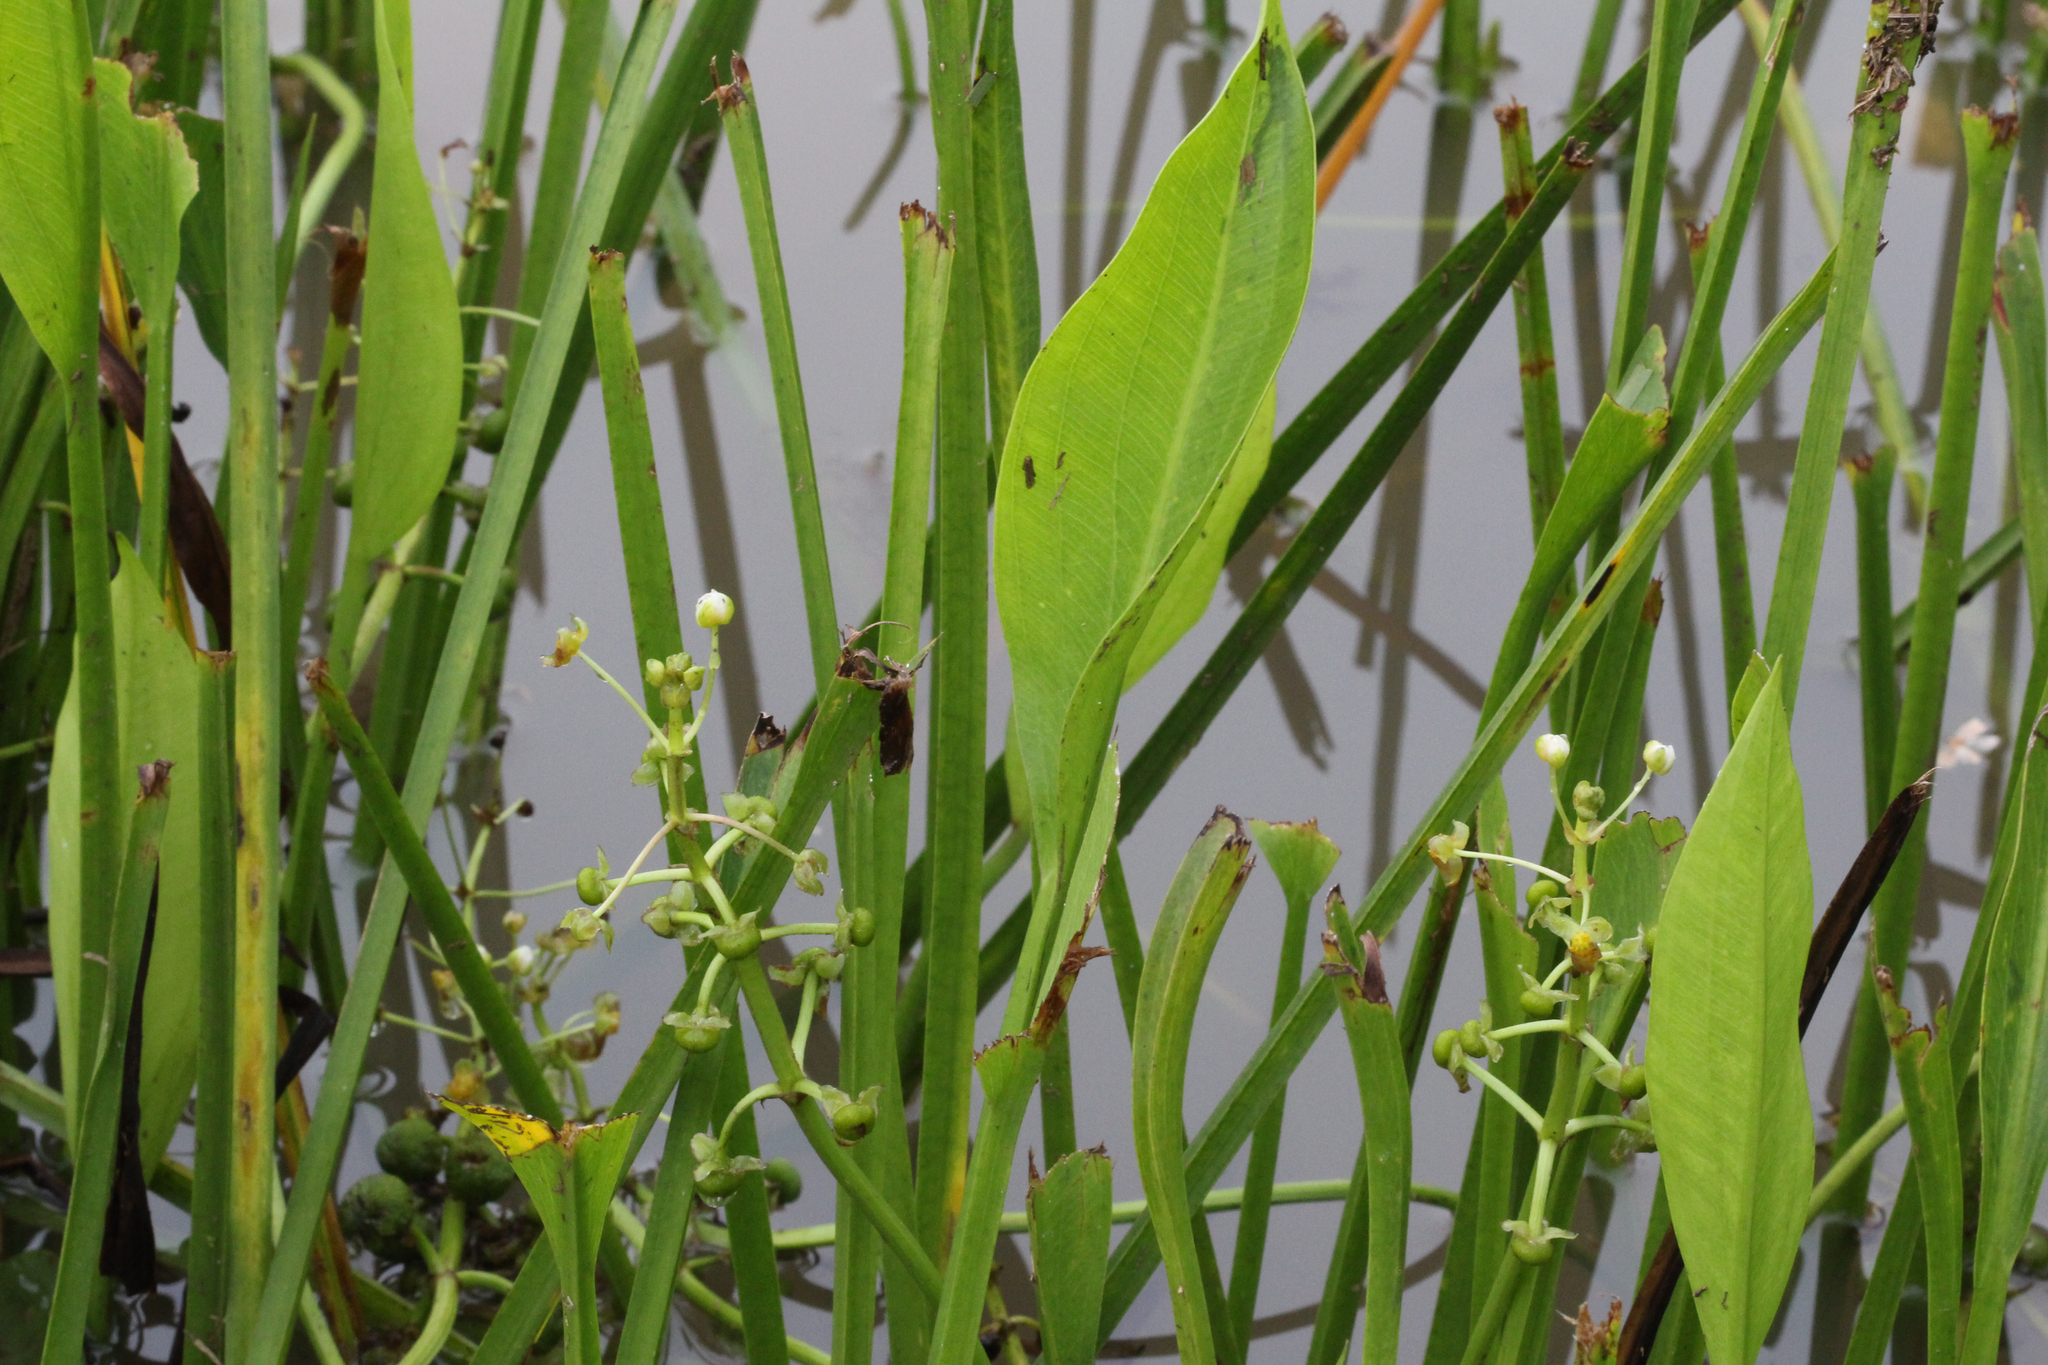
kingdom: Plantae
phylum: Tracheophyta
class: Liliopsida
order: Alismatales
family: Alismataceae
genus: Sagittaria
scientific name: Sagittaria platyphylla
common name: Broad-leaf arrowhead
